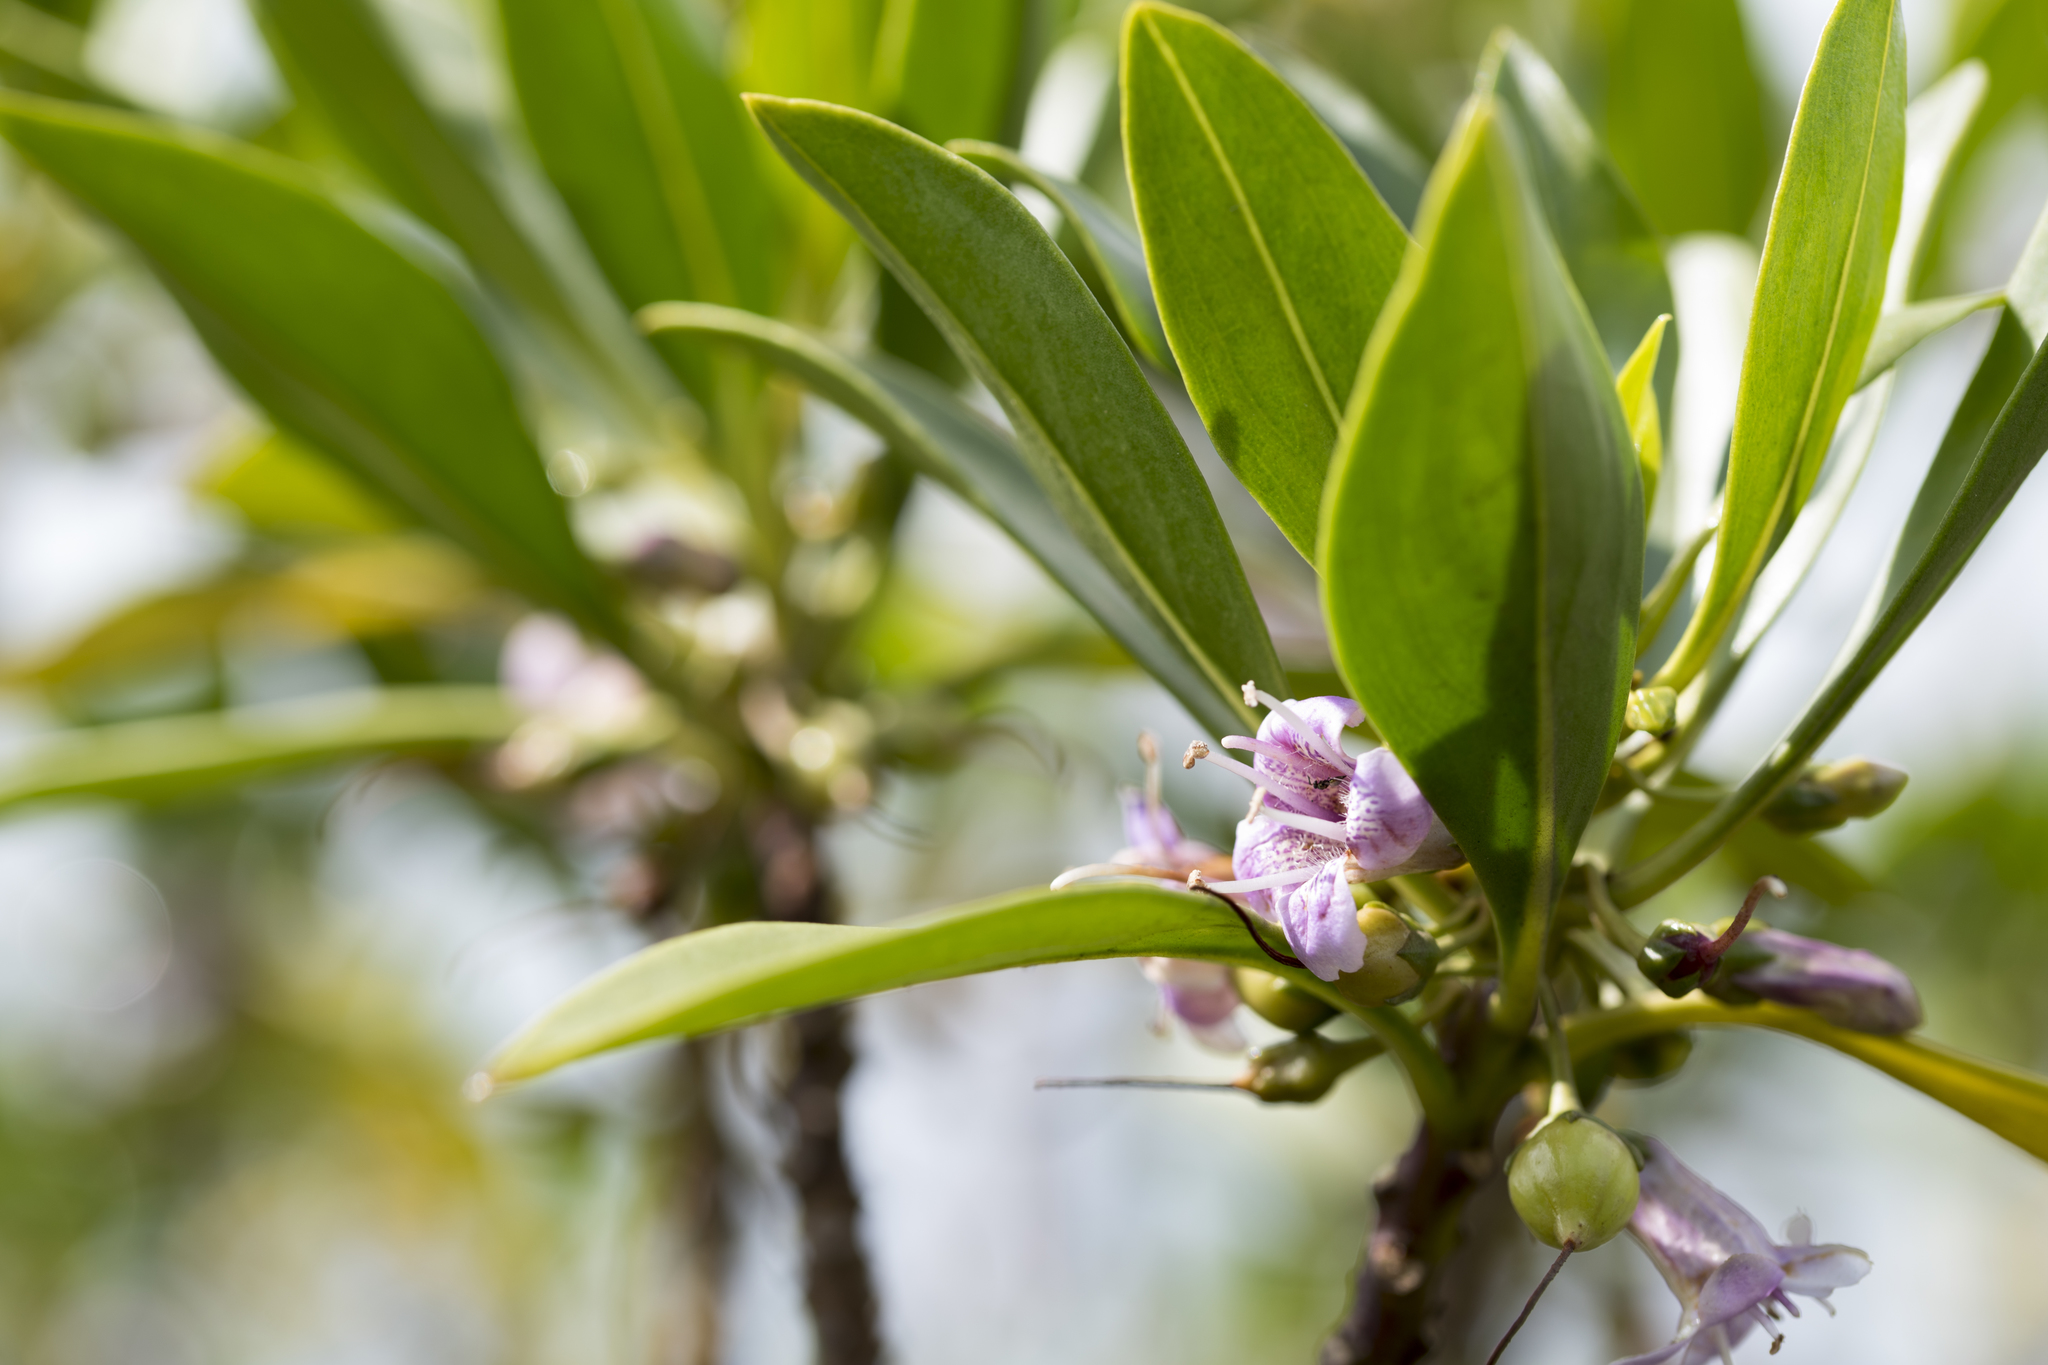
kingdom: Plantae
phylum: Tracheophyta
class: Magnoliopsida
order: Lamiales
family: Scrophulariaceae
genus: Myoporum
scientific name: Myoporum bontioides
